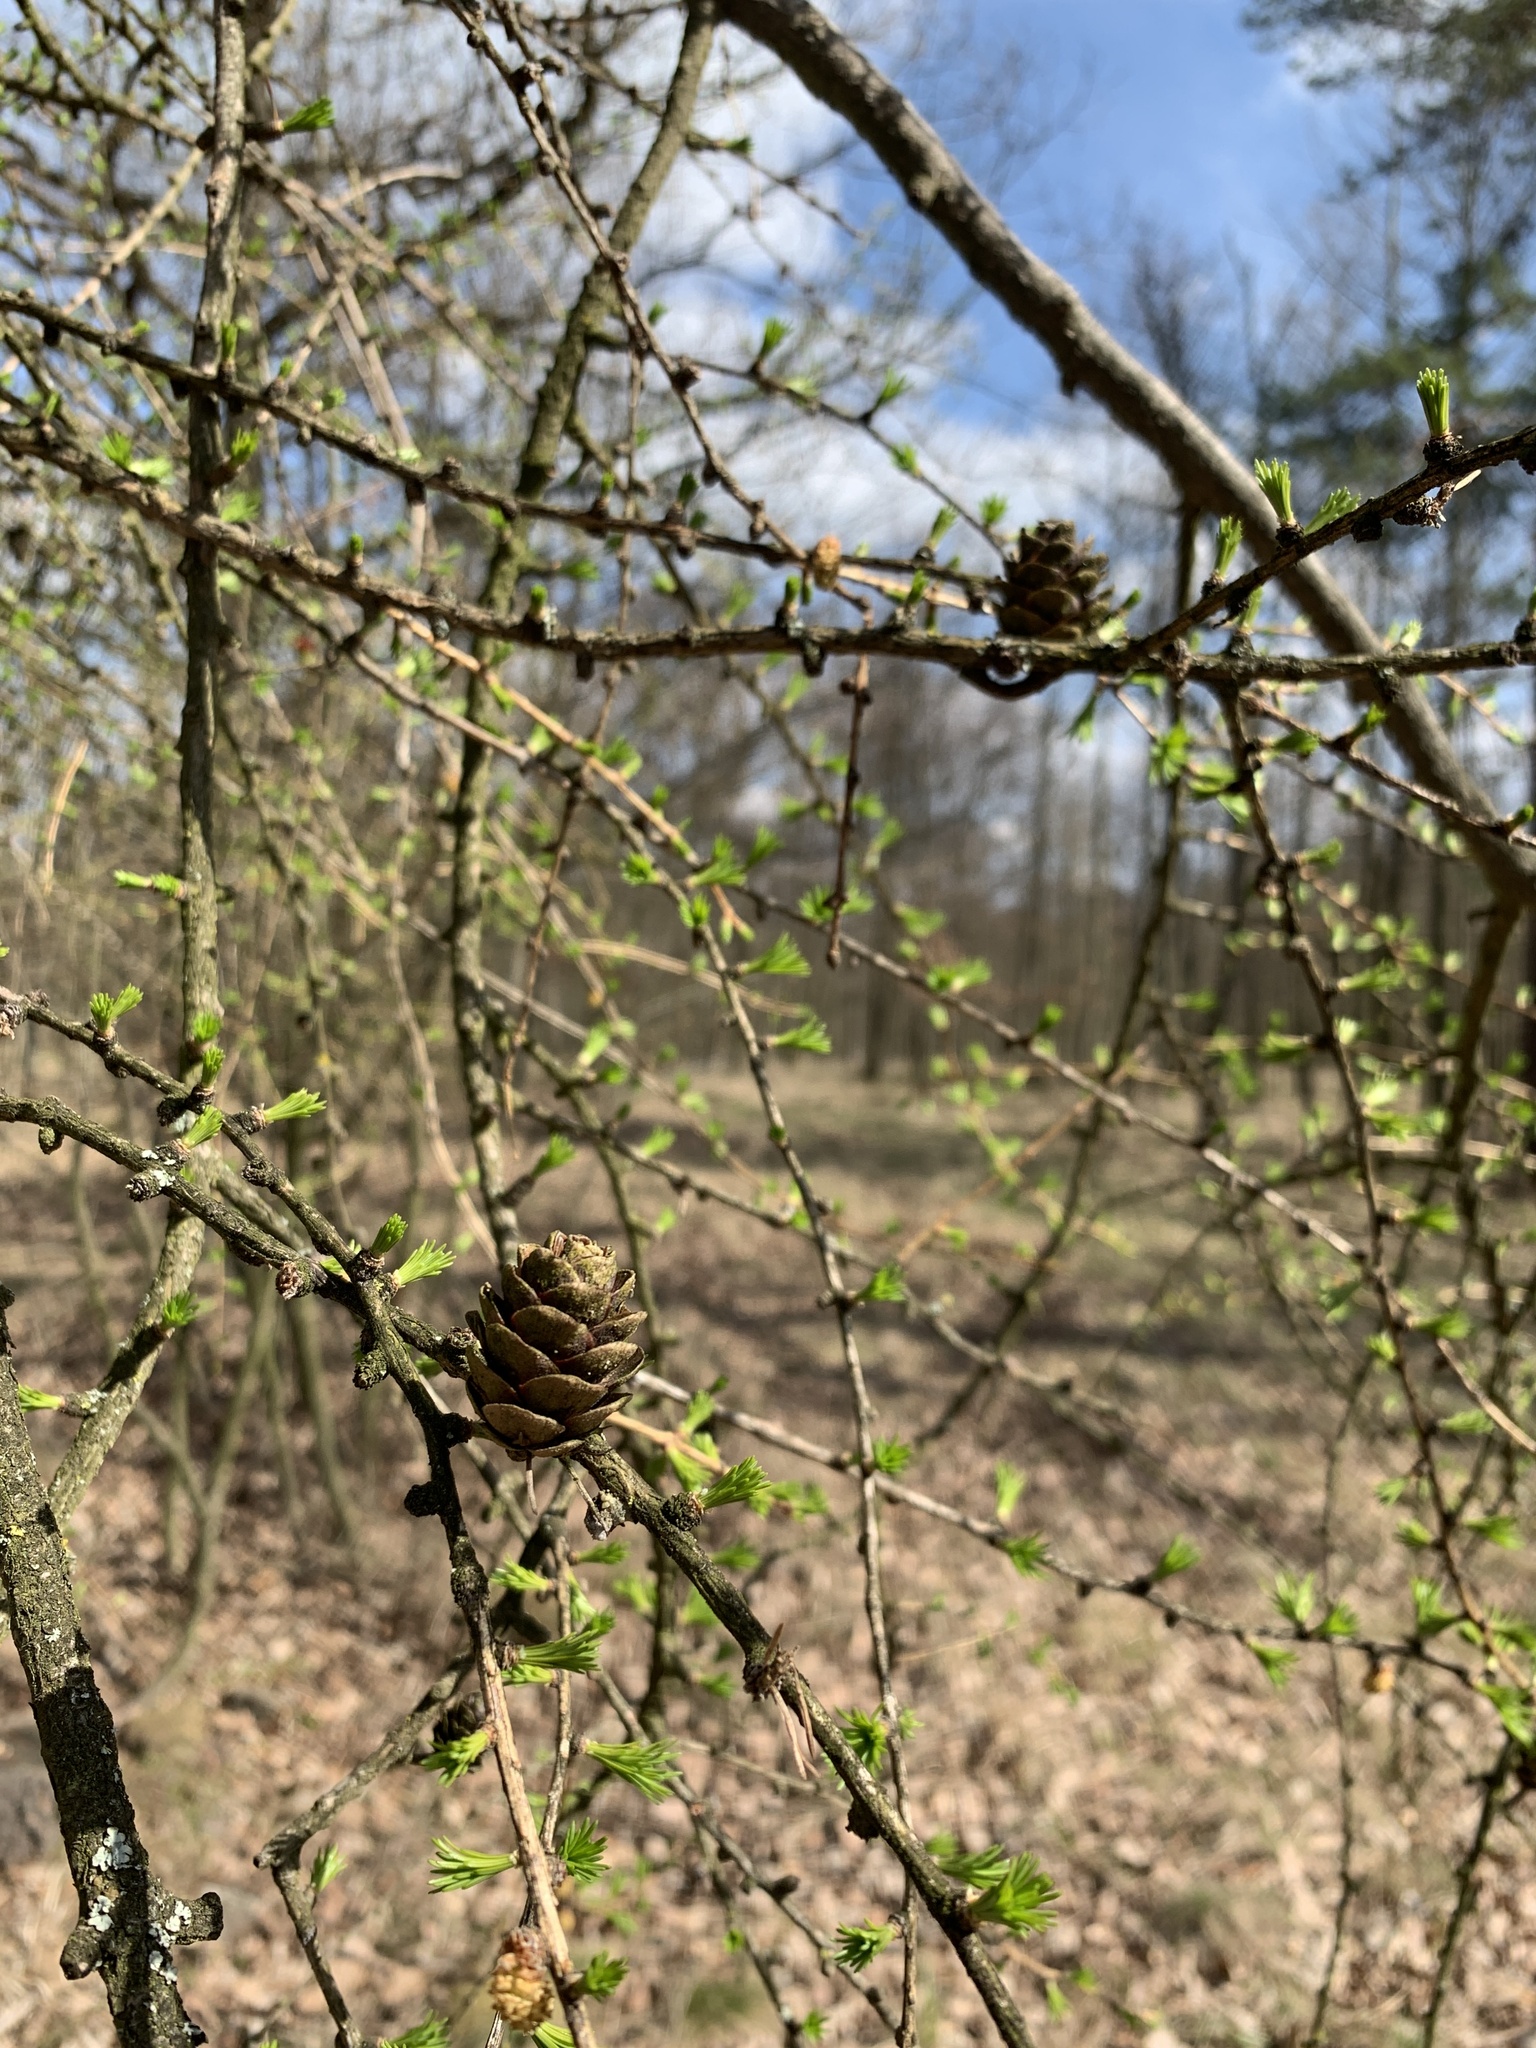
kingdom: Plantae
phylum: Tracheophyta
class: Pinopsida
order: Pinales
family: Pinaceae
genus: Larix
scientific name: Larix decidua
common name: European larch
